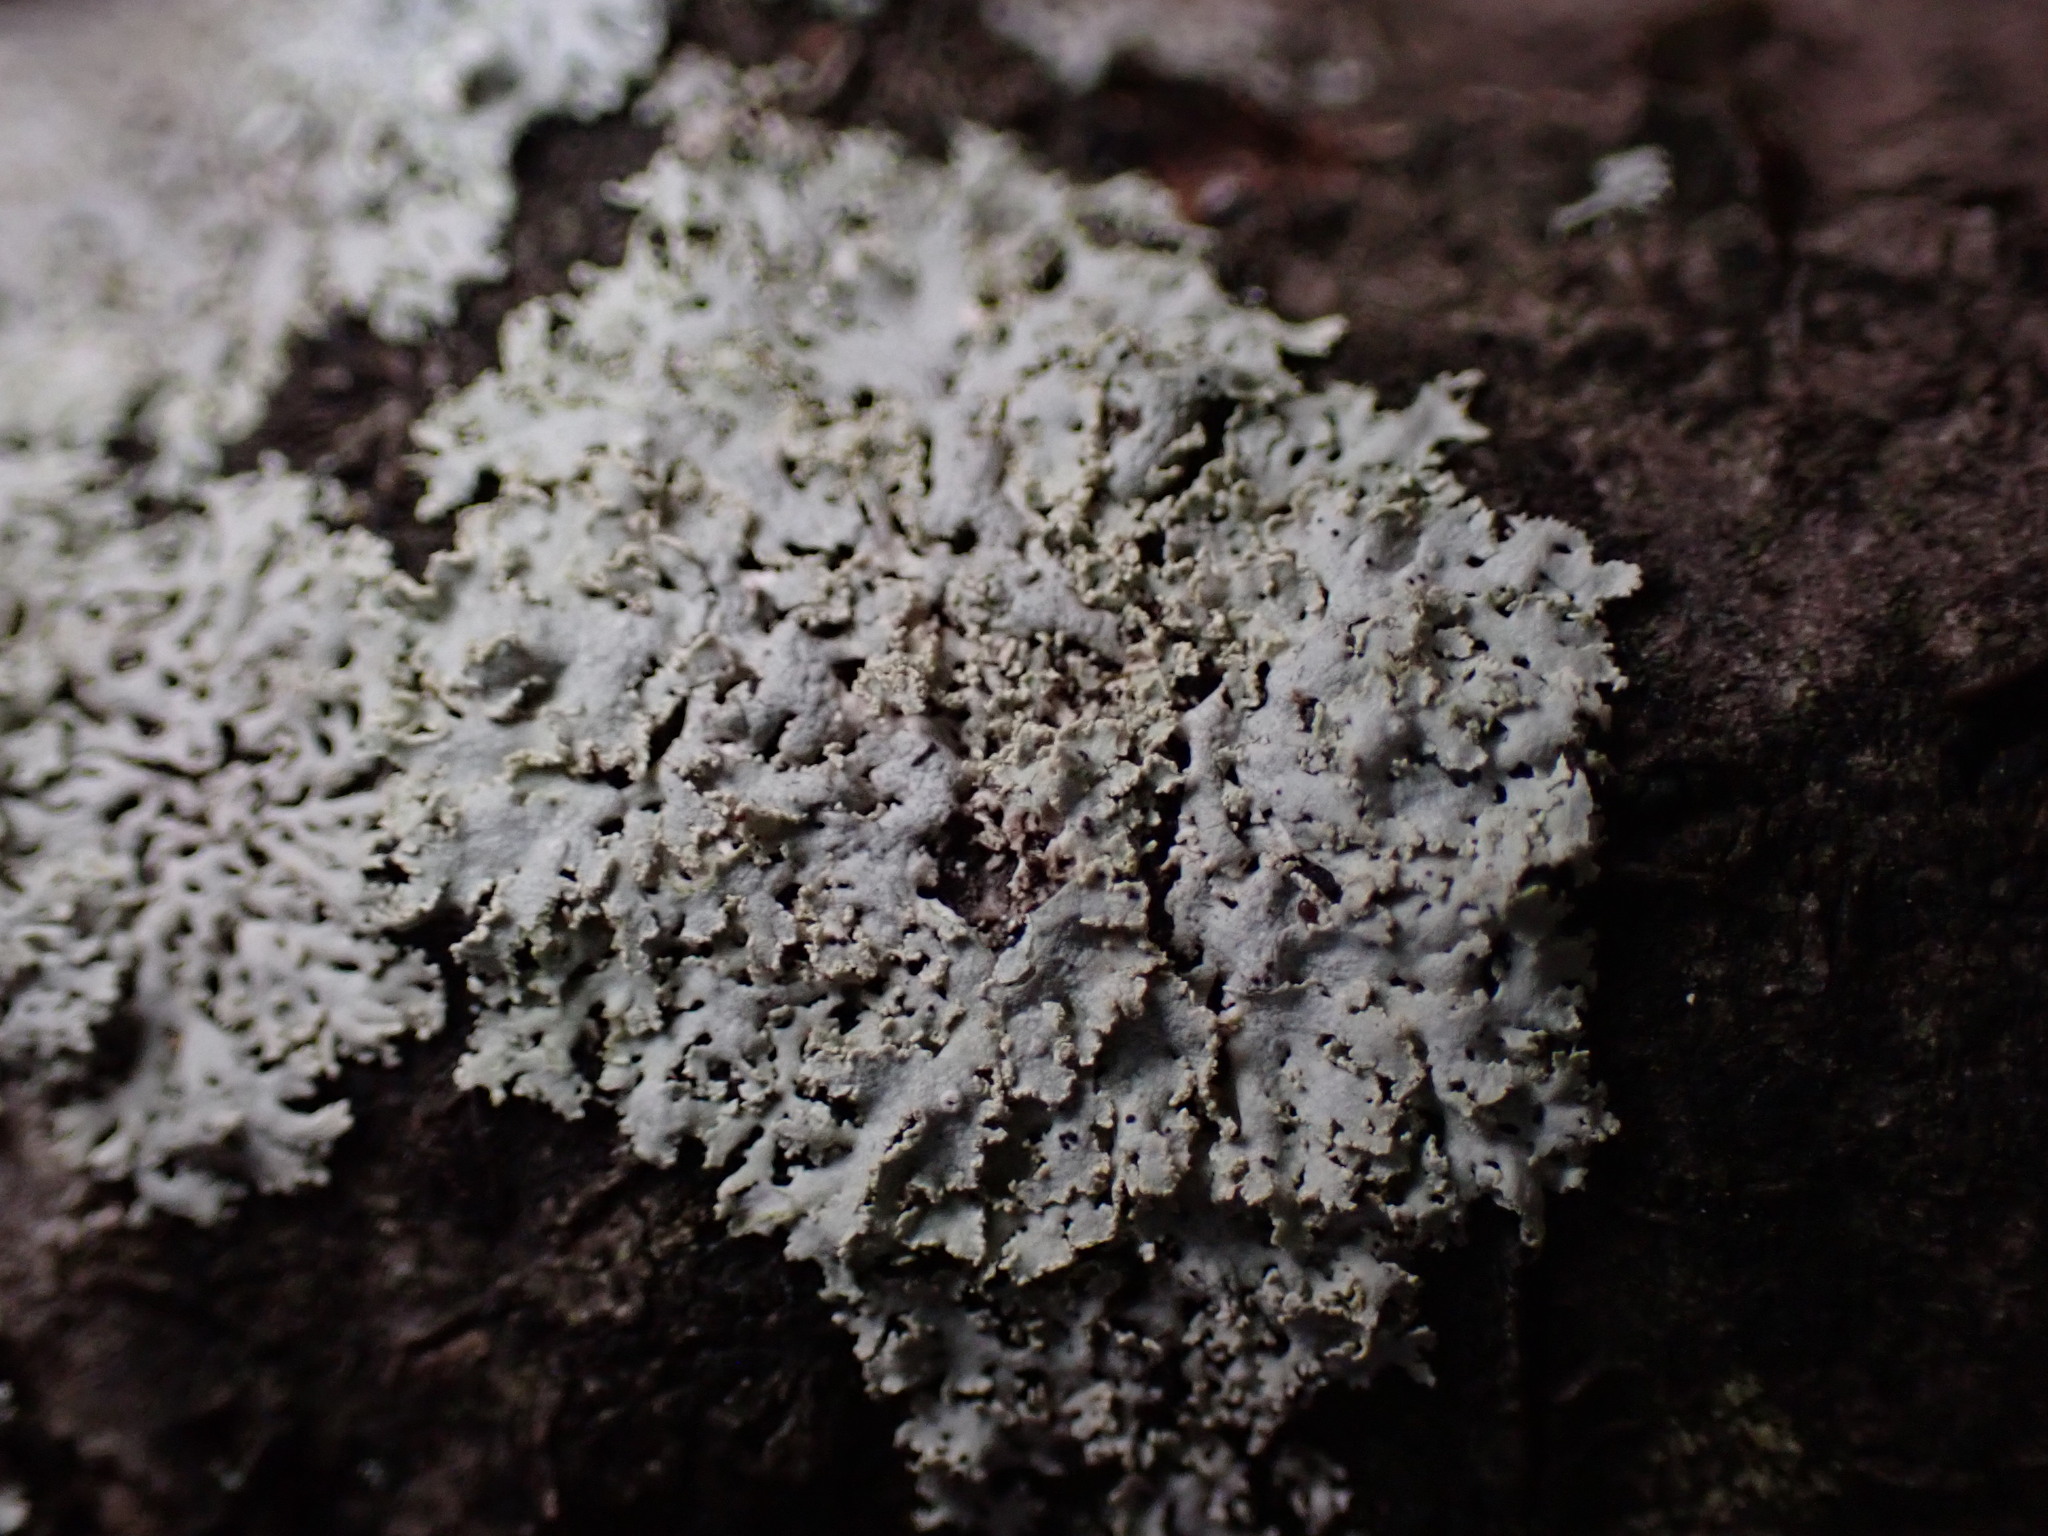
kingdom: Fungi
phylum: Ascomycota
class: Lecanoromycetes
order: Caliciales
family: Physciaceae
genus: Physcia
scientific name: Physcia millegrana
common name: Rosette lichen
